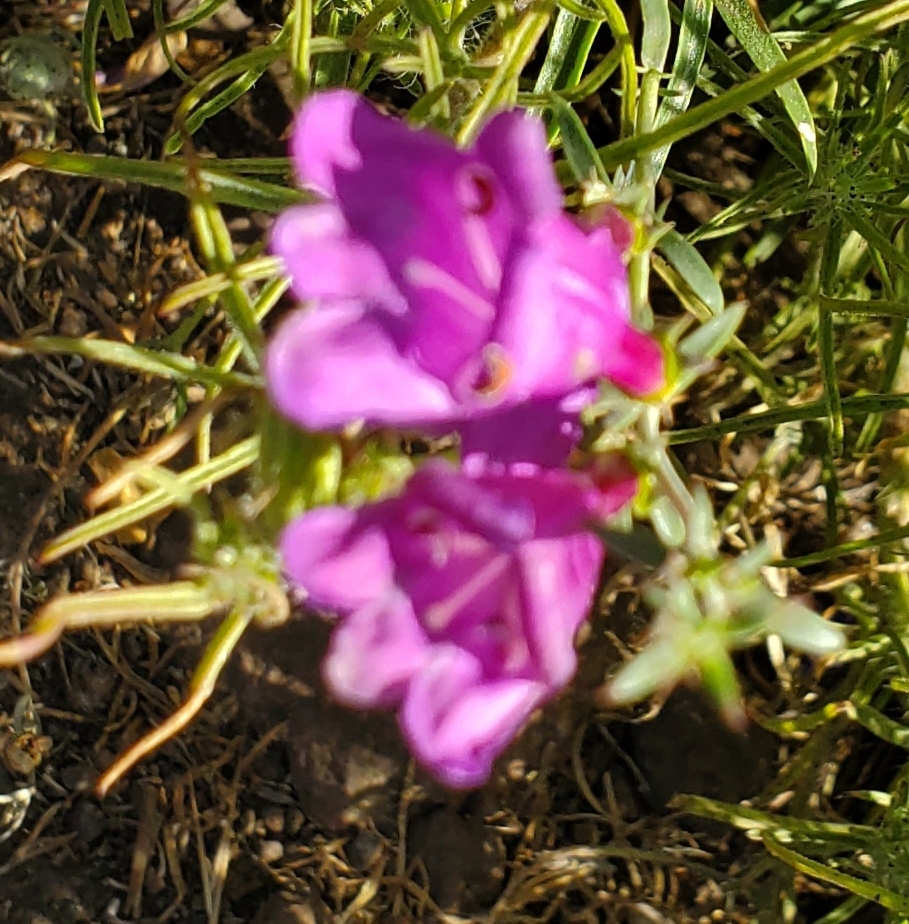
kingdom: Plantae
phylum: Tracheophyta
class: Magnoliopsida
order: Lamiales
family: Plantaginaceae
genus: Penstemon
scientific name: Penstemon heterophyllus
